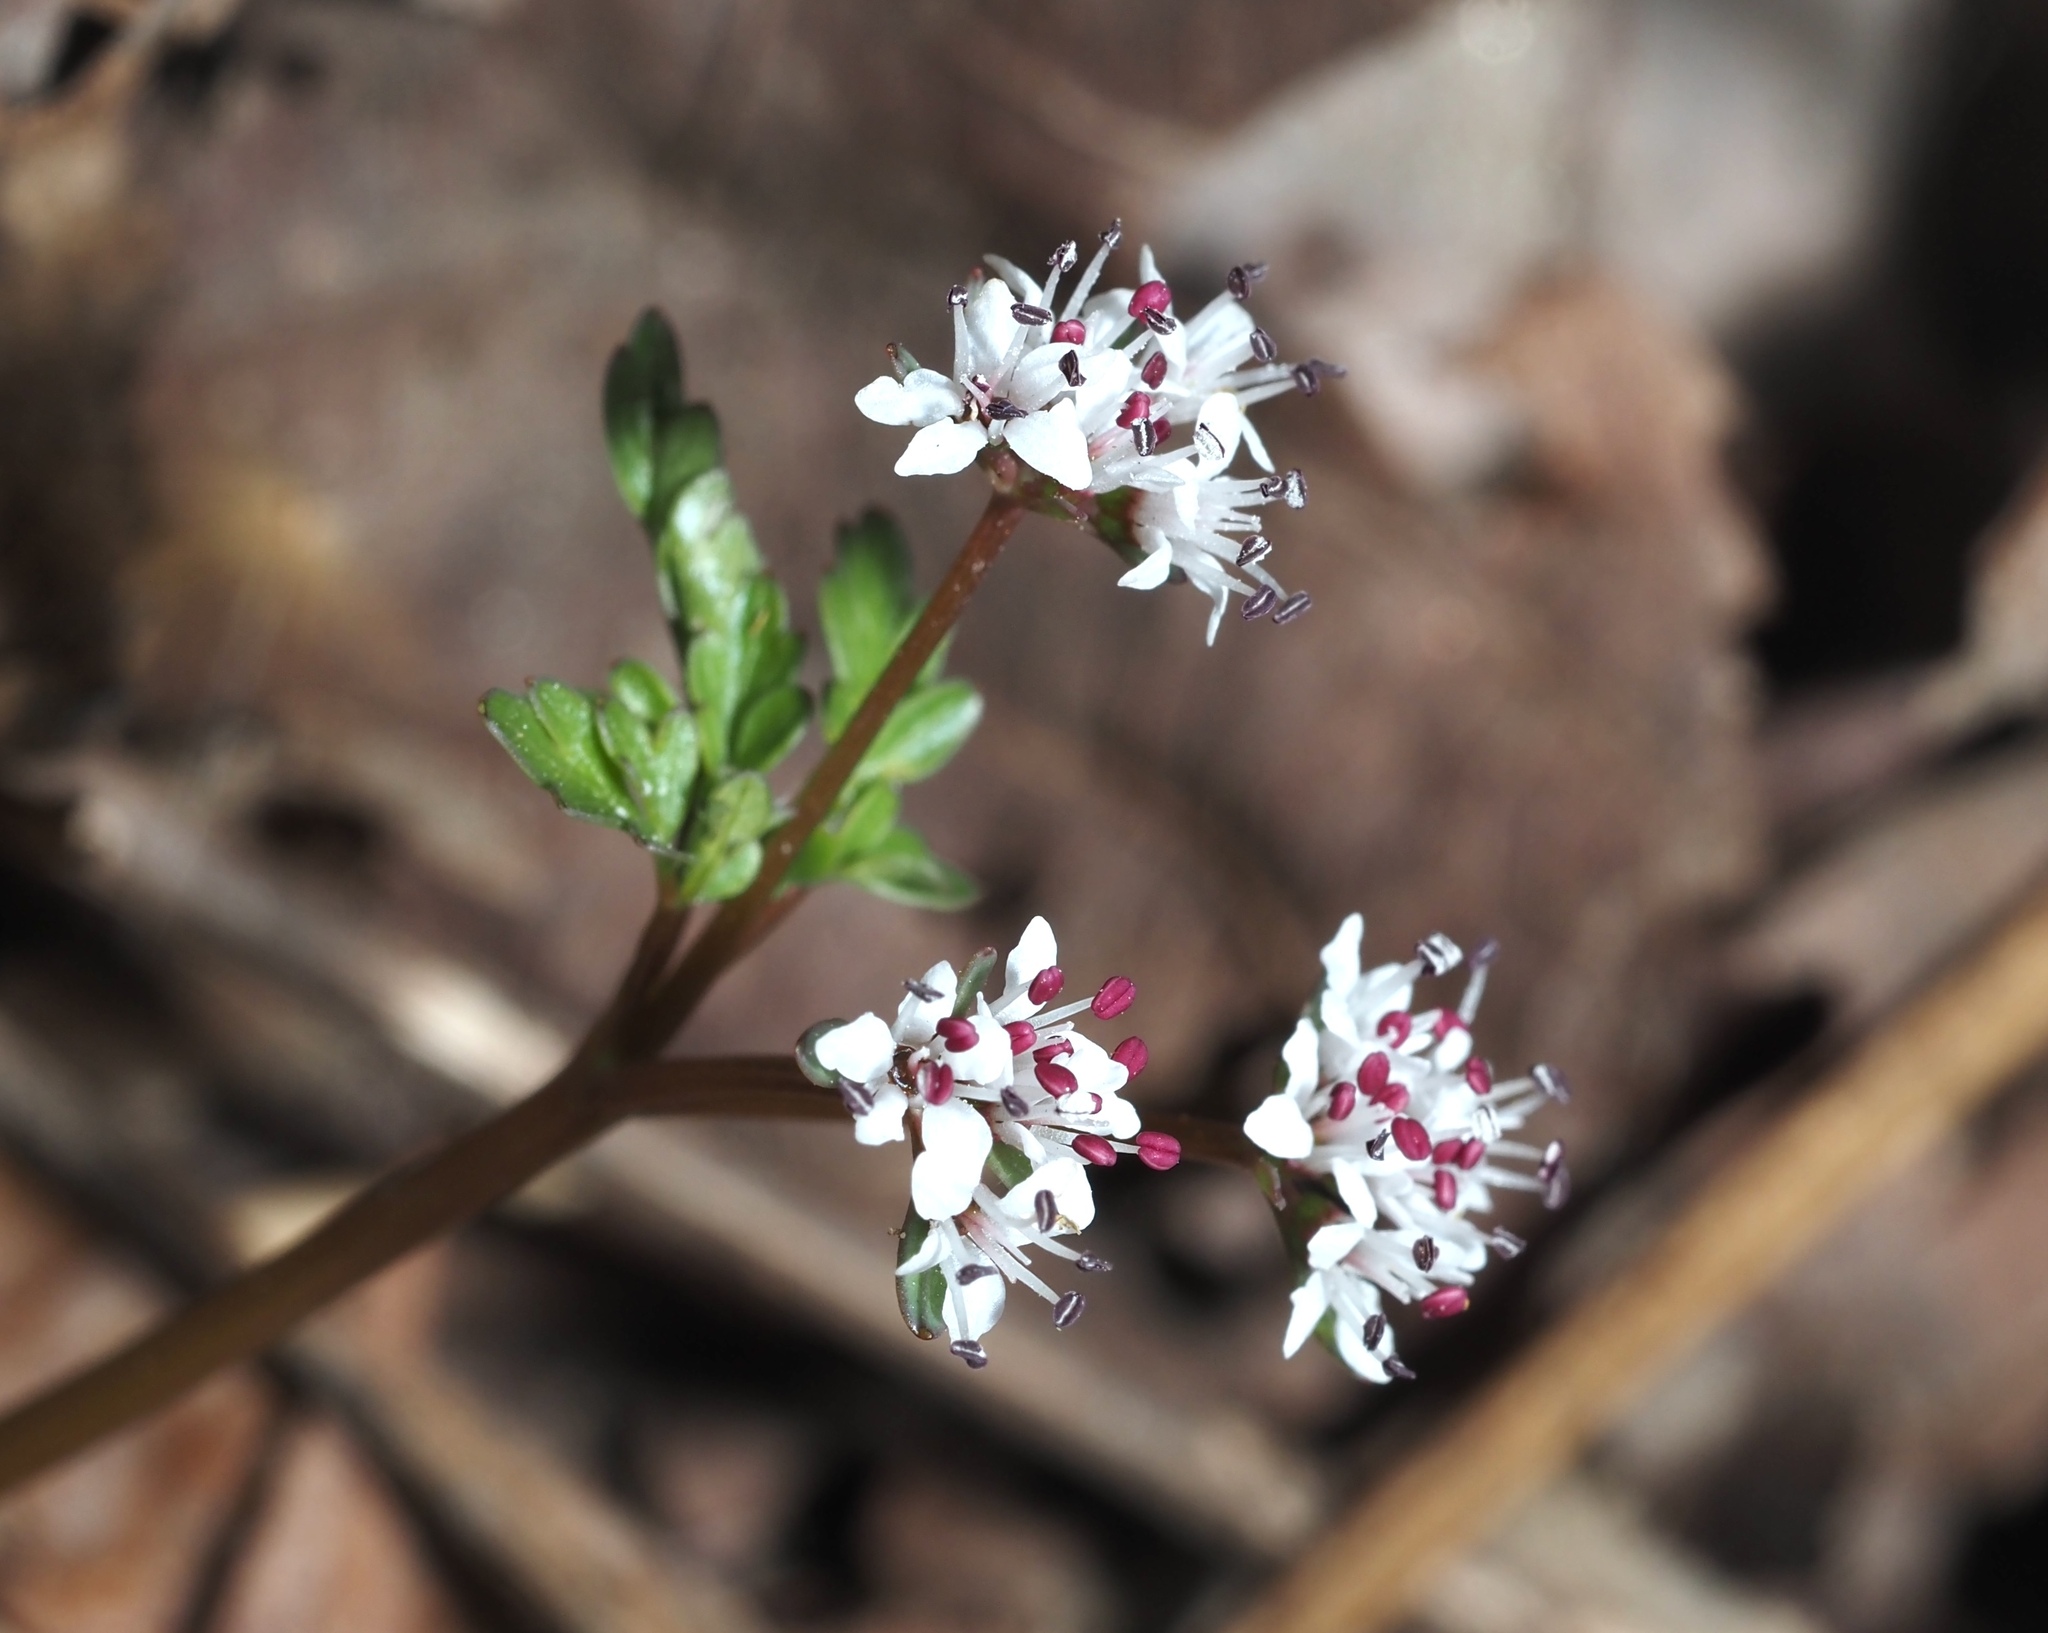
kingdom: Plantae
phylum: Tracheophyta
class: Magnoliopsida
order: Apiales
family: Apiaceae
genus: Erigenia
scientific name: Erigenia bulbosa
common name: Pepper-and-salt
